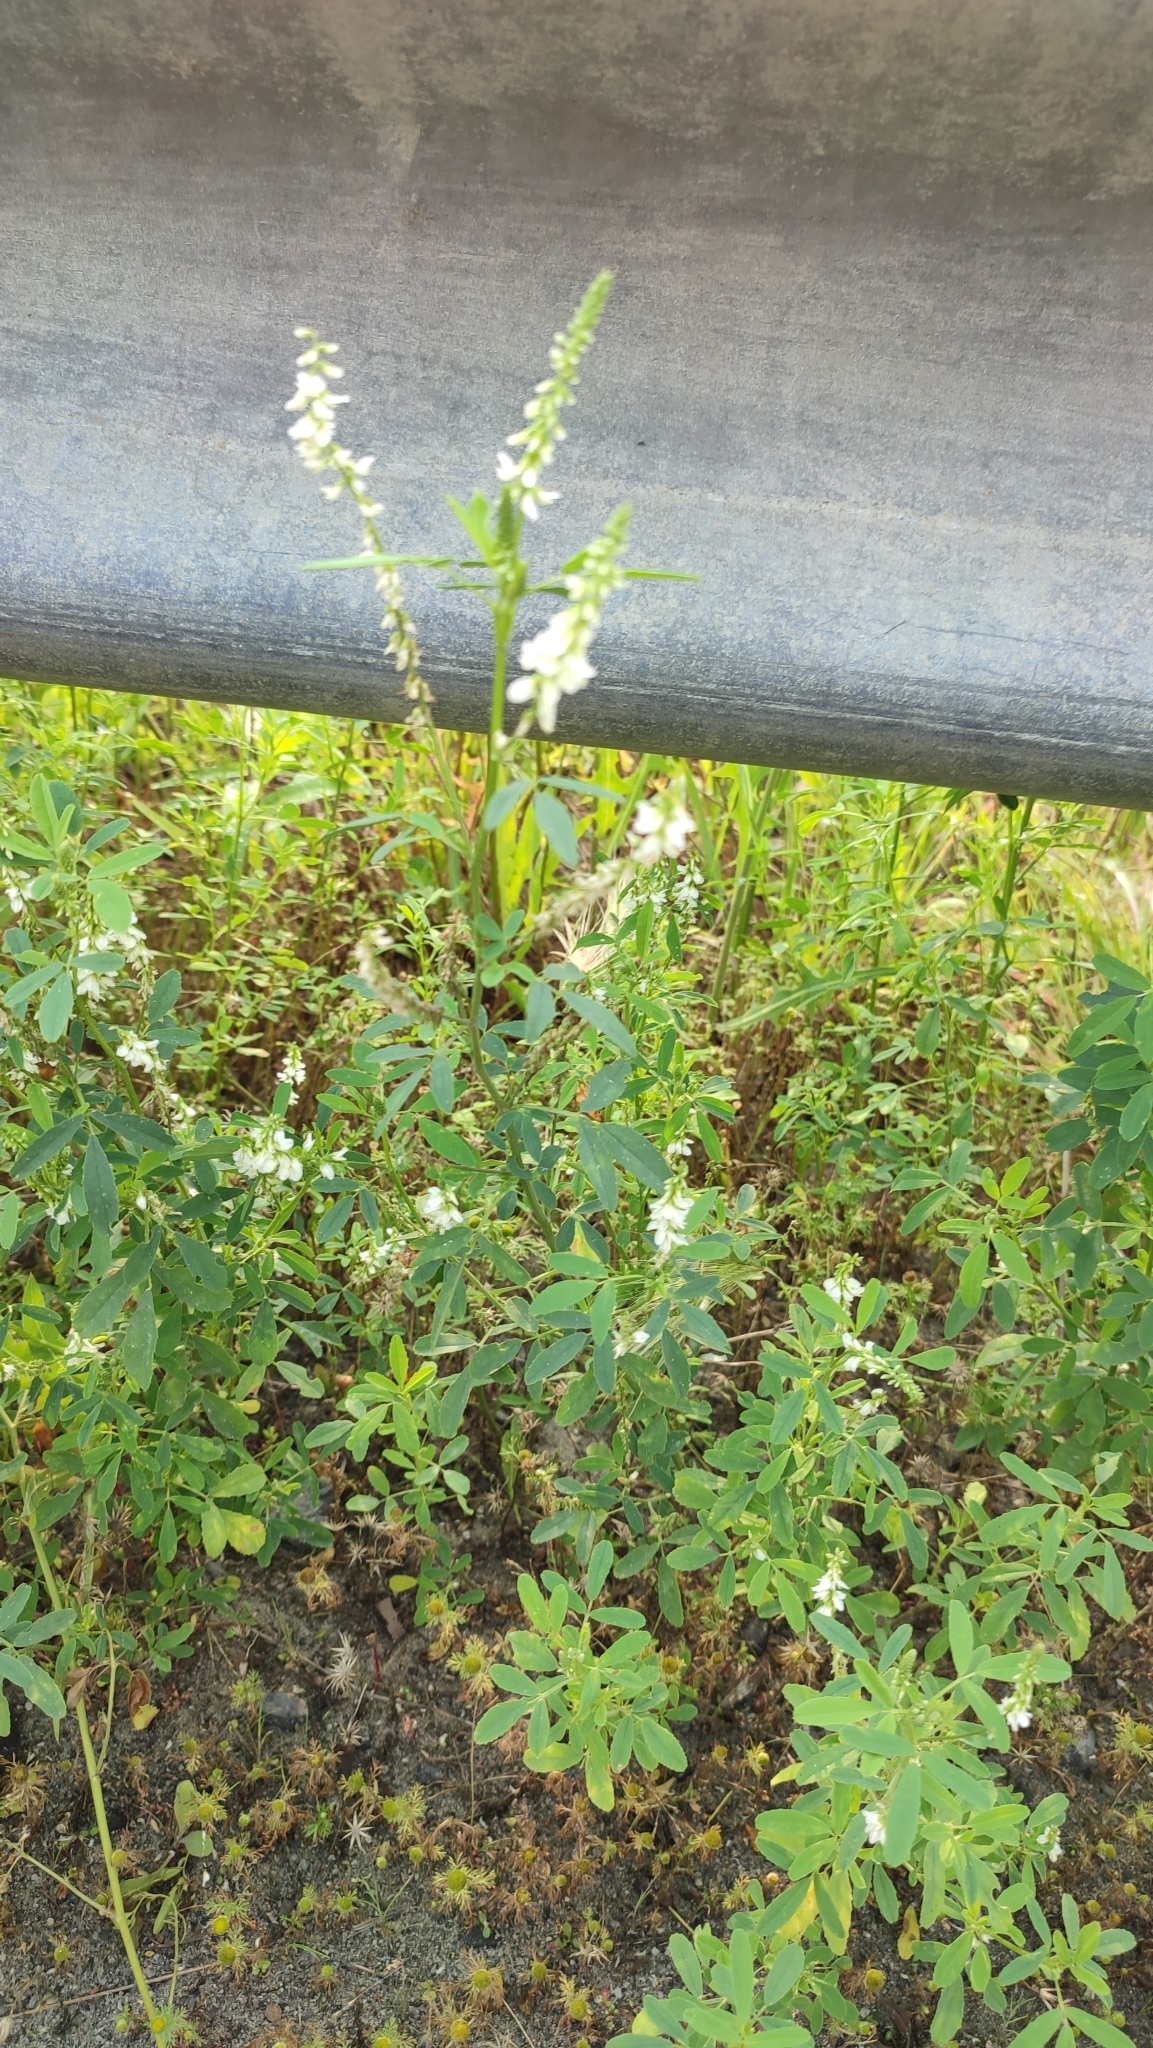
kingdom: Plantae
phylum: Tracheophyta
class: Magnoliopsida
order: Fabales
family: Fabaceae
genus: Melilotus
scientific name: Melilotus albus
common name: White melilot
